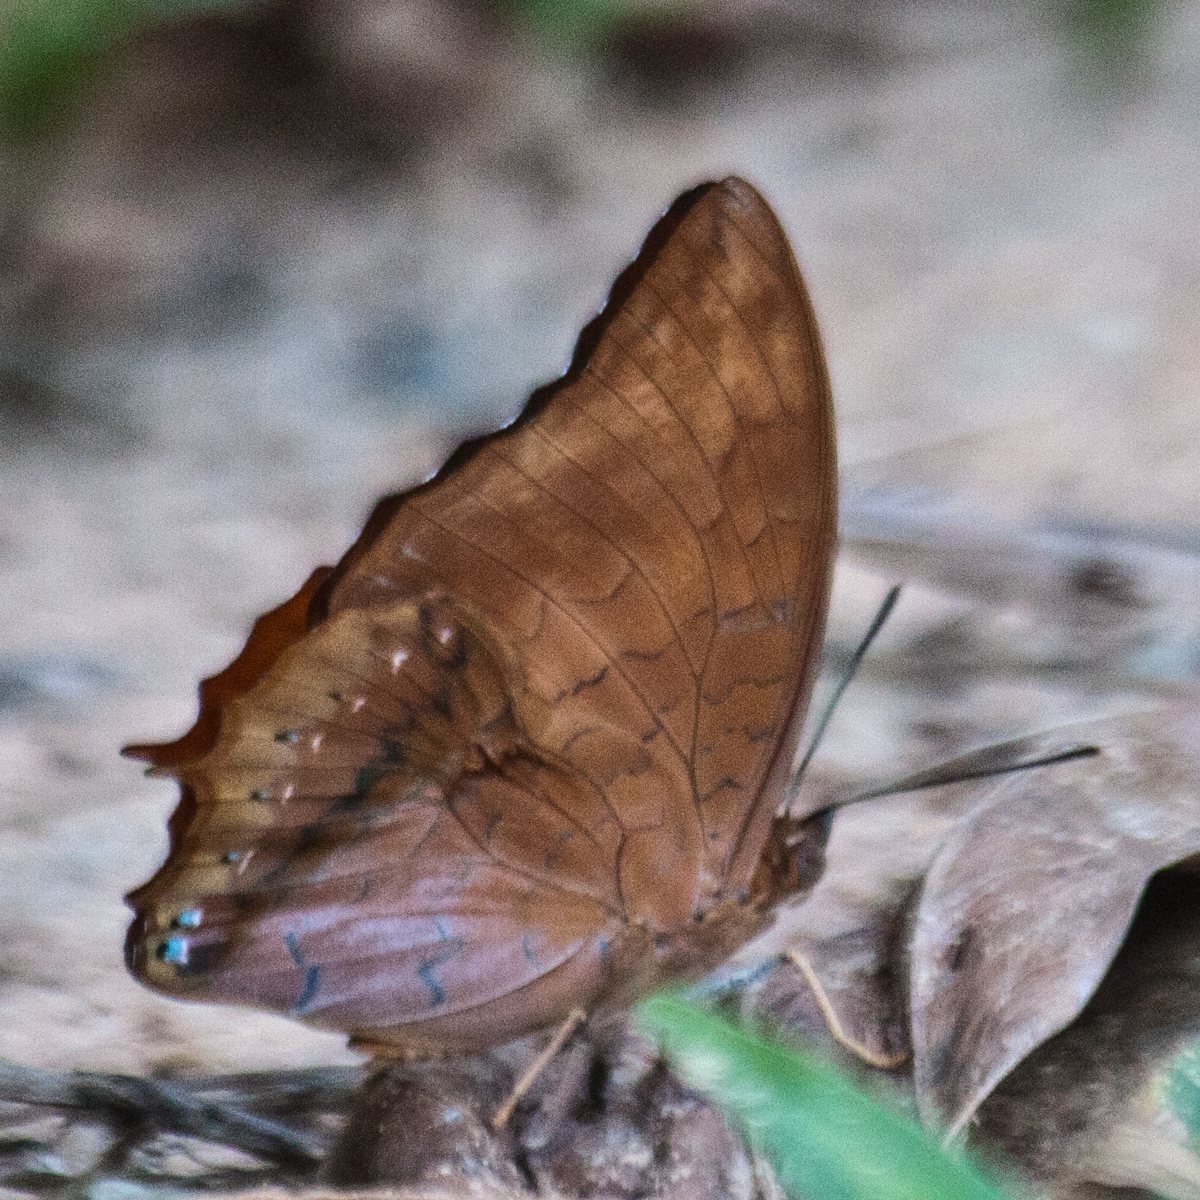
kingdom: Animalia
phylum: Arthropoda
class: Insecta
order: Lepidoptera
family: Nymphalidae
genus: Charaxes
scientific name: Charaxes bernardus
